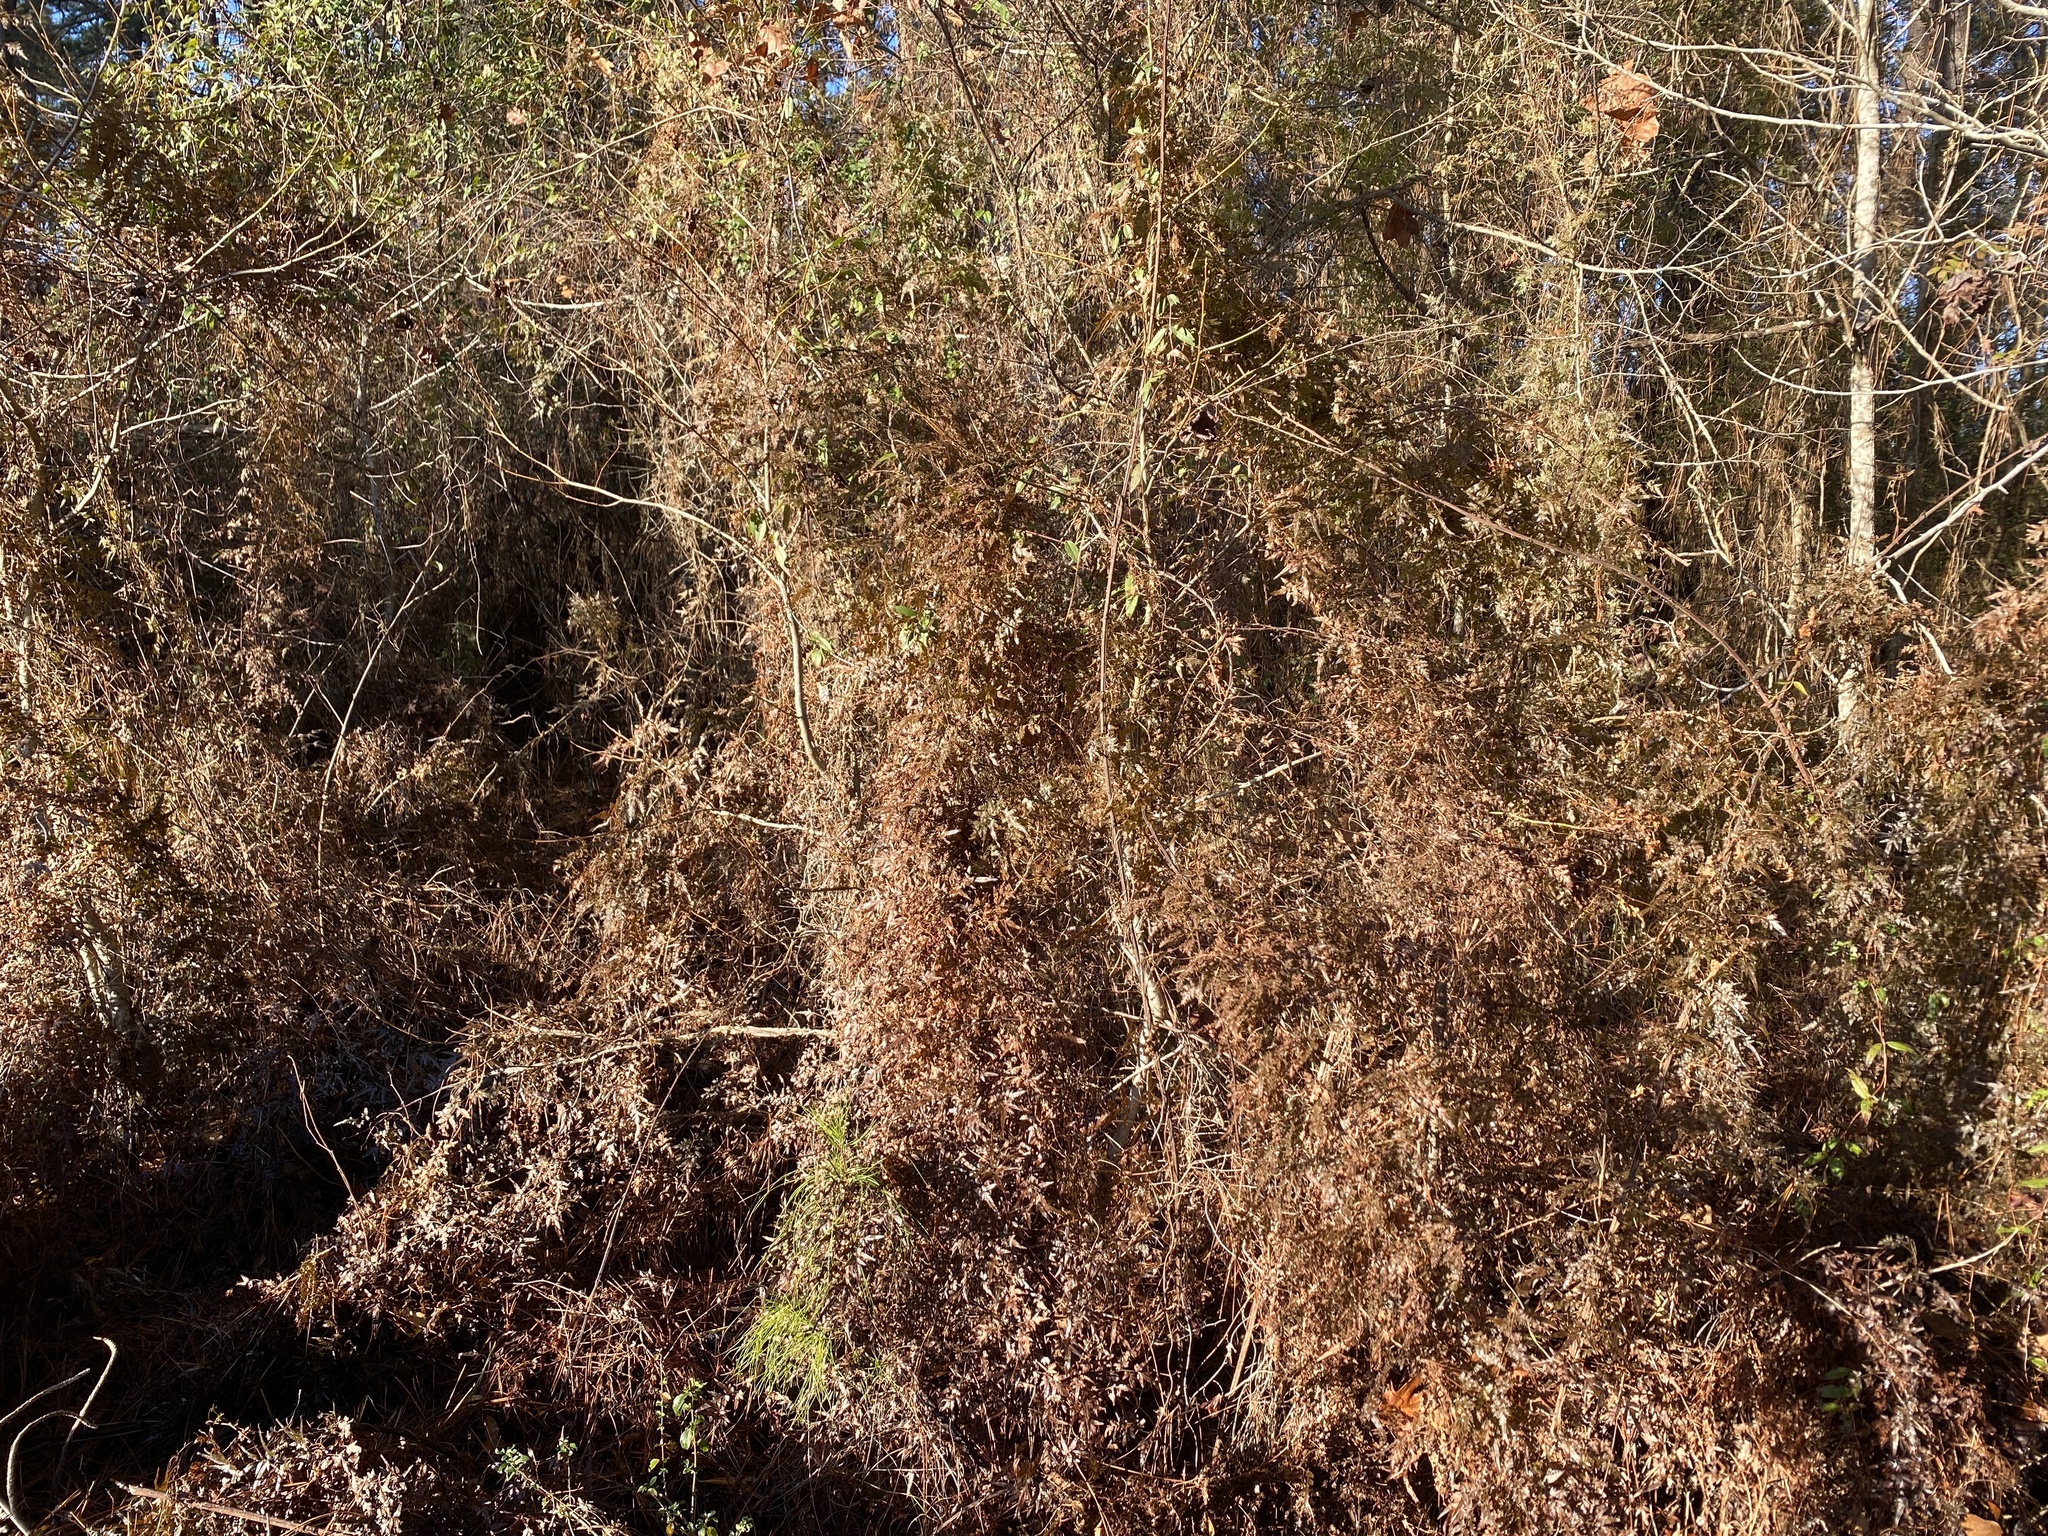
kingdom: Plantae
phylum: Tracheophyta
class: Polypodiopsida
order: Schizaeales
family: Lygodiaceae
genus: Lygodium
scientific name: Lygodium japonicum
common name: Japanese climbing fern
